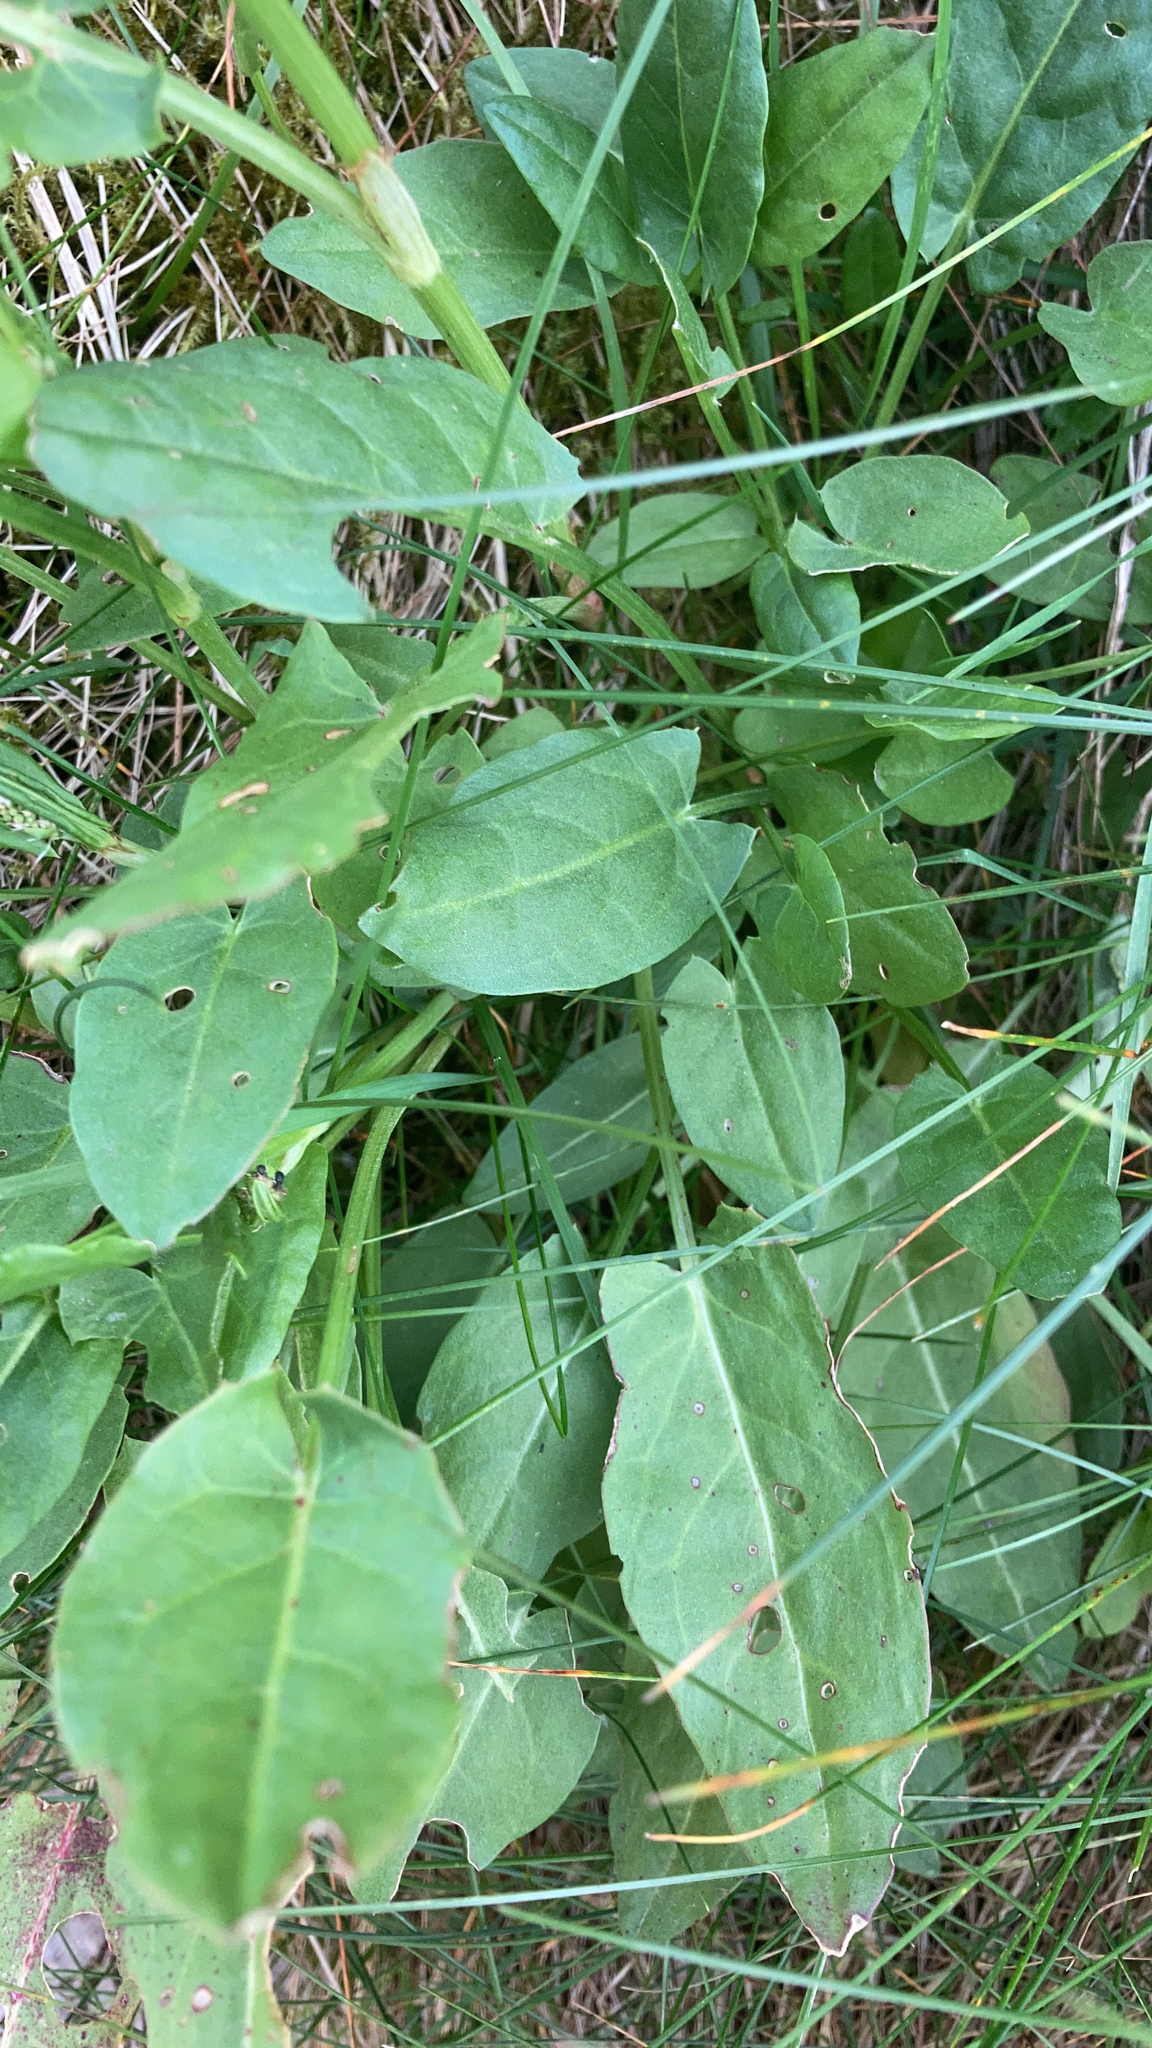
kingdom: Plantae
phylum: Tracheophyta
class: Magnoliopsida
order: Caryophyllales
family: Polygonaceae
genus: Rumex
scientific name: Rumex acetosa
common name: Garden sorrel
